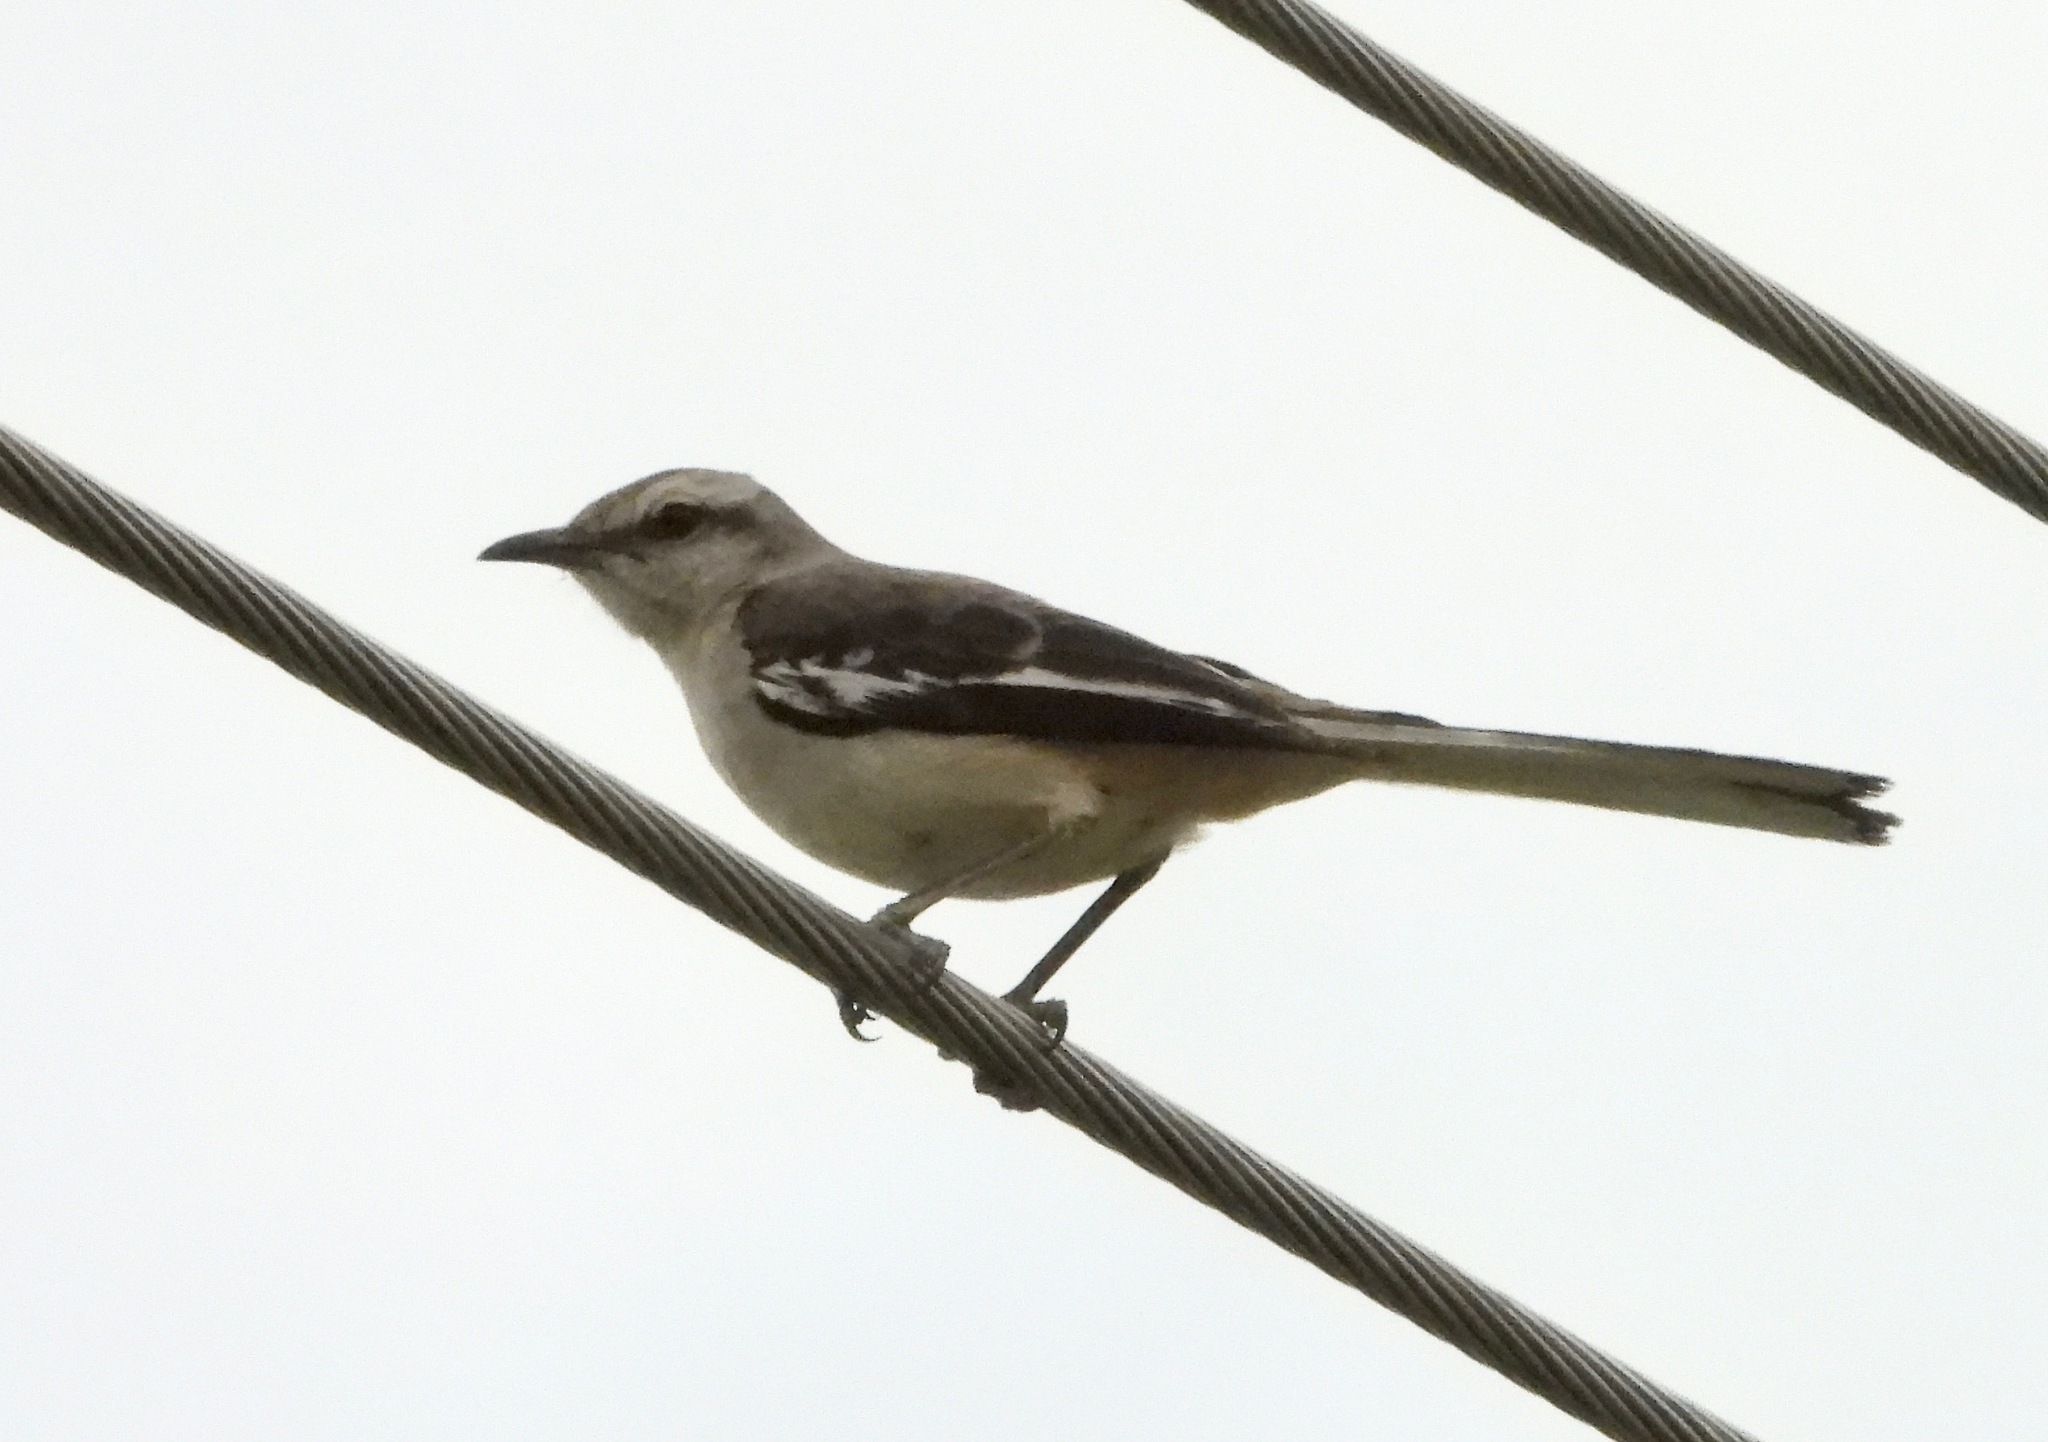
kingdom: Animalia
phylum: Chordata
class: Aves
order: Passeriformes
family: Mimidae
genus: Mimus
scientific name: Mimus triurus
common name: White-banded mockingbird
